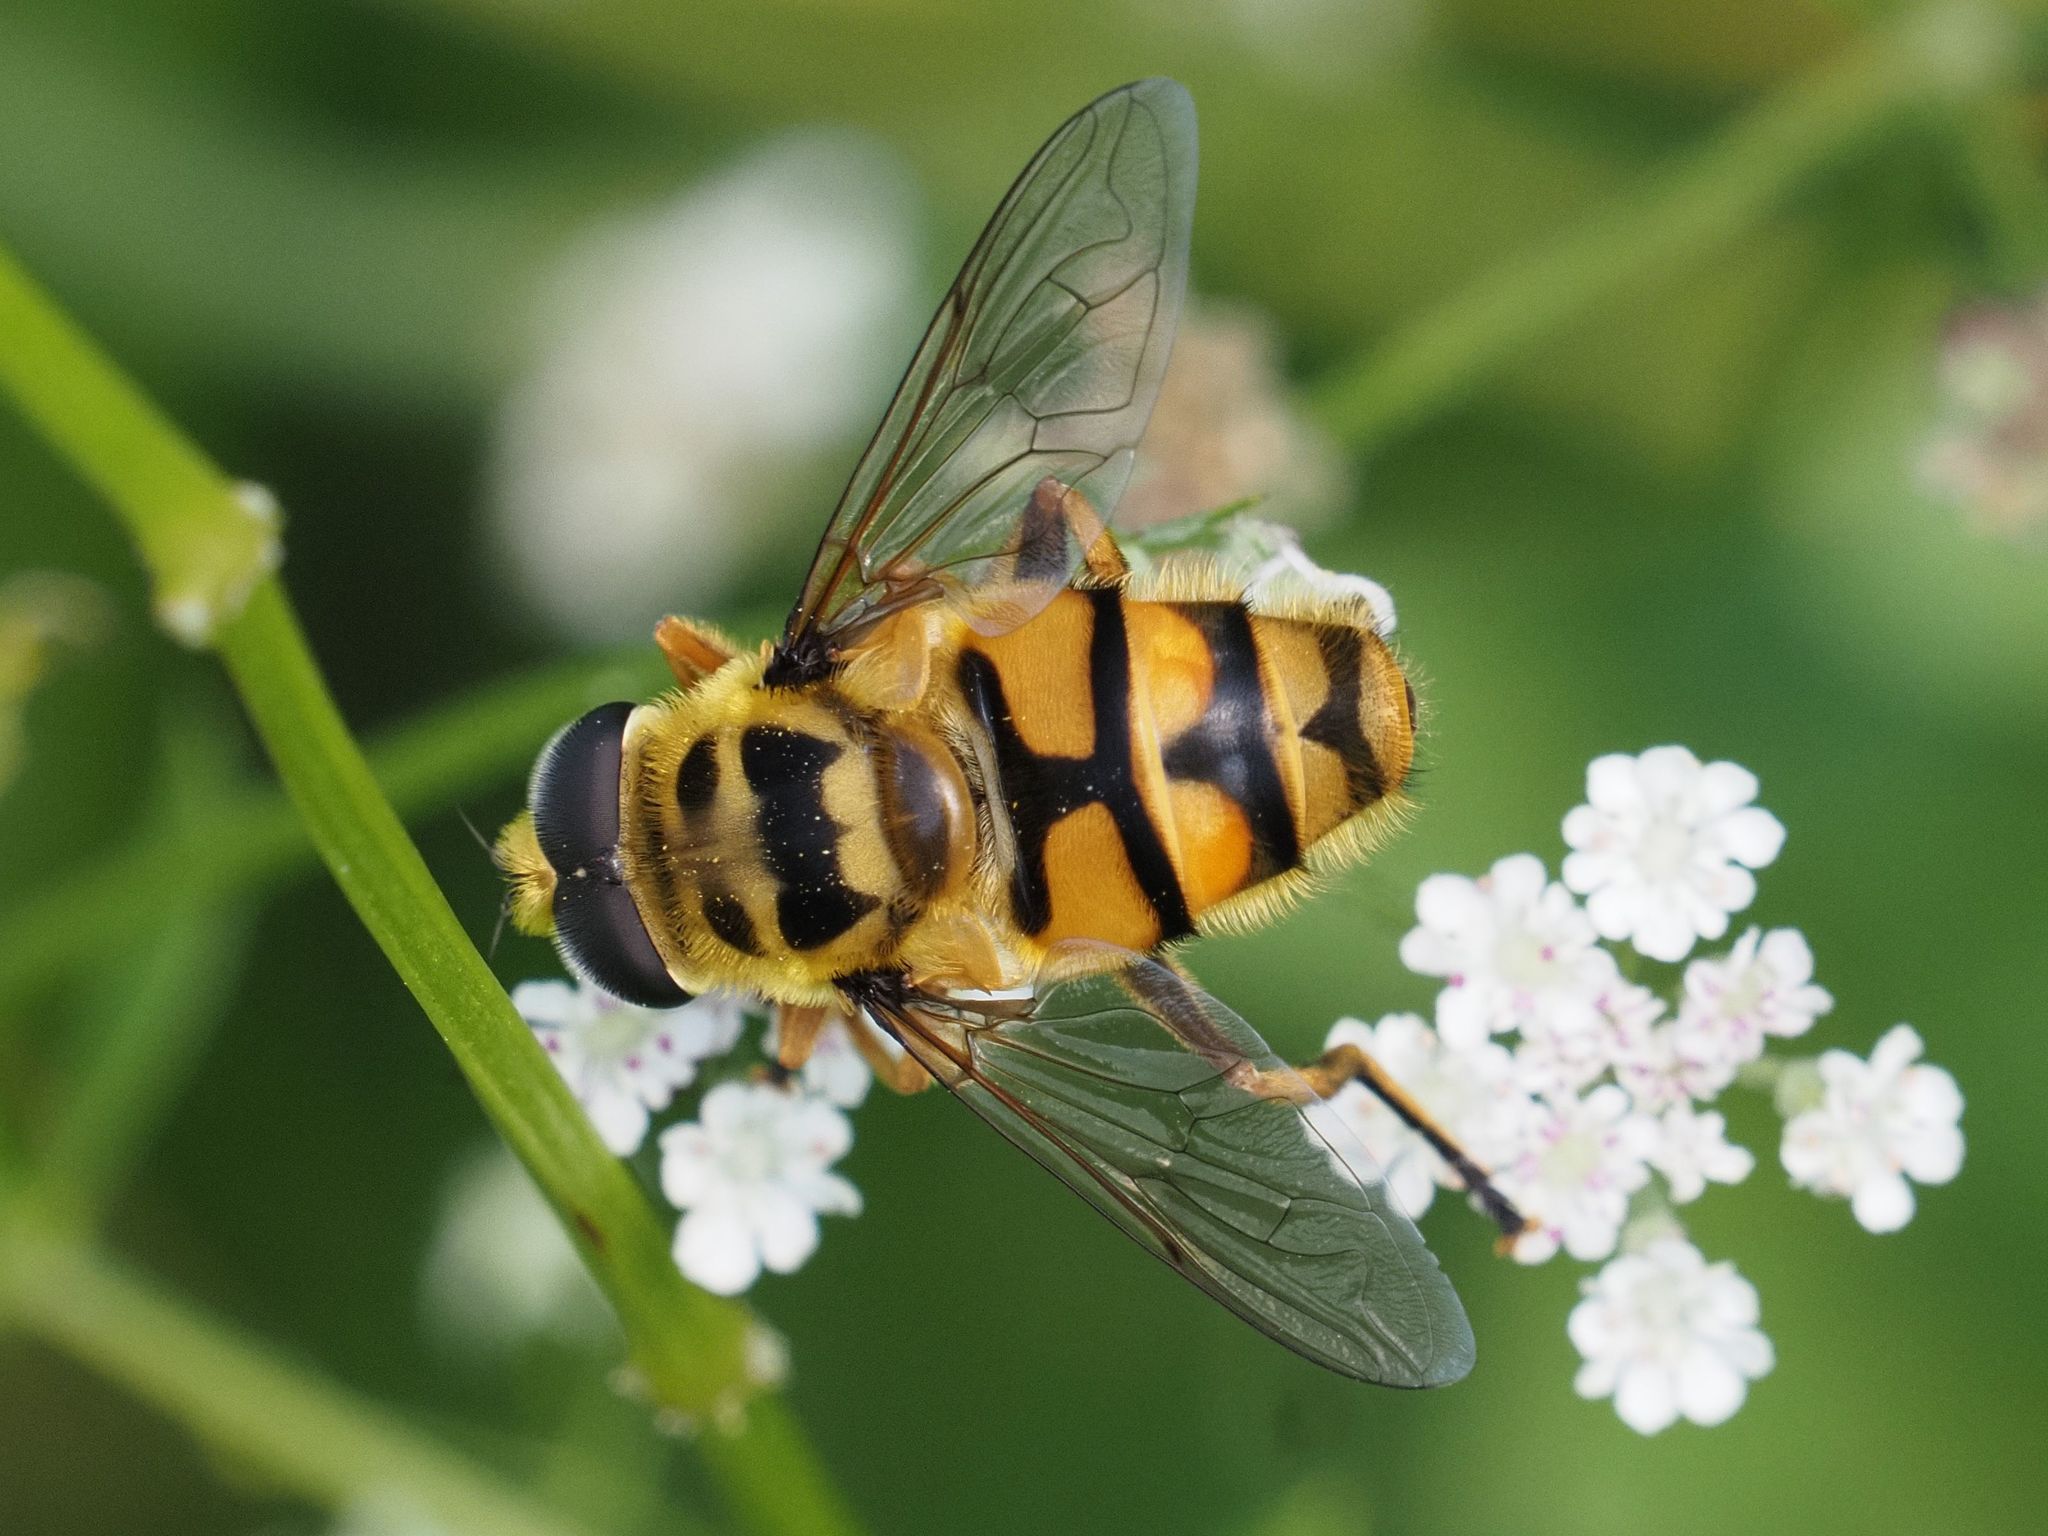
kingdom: Animalia
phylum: Arthropoda
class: Insecta
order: Diptera
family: Syrphidae
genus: Myathropa
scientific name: Myathropa florea
